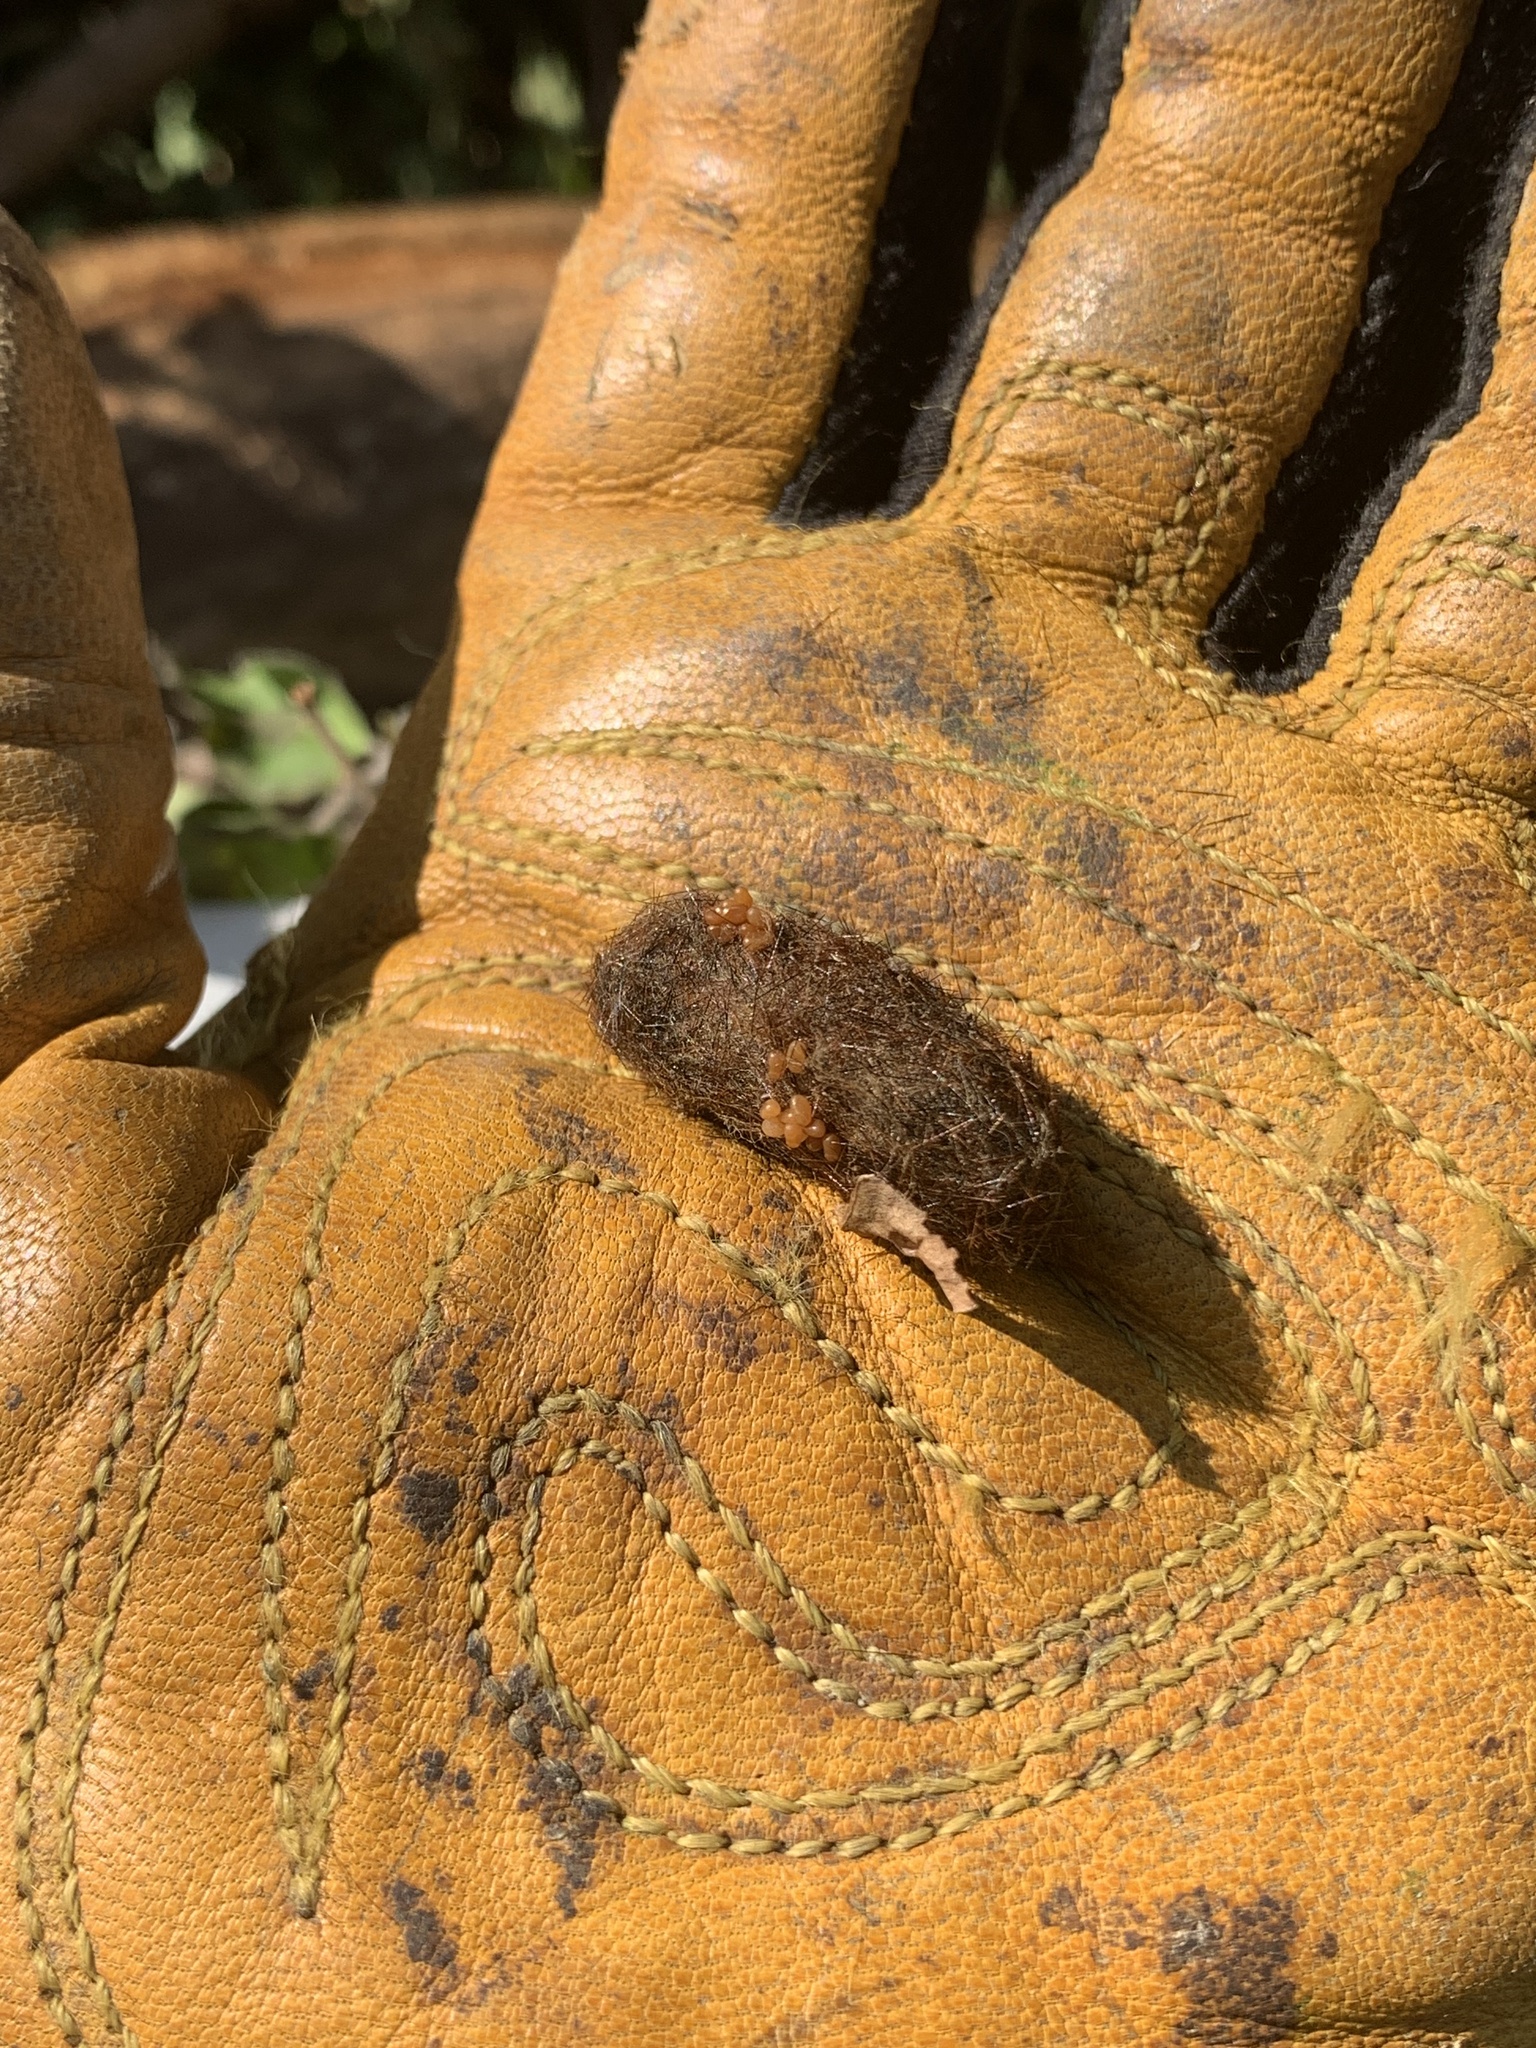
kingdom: Animalia
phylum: Arthropoda
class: Insecta
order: Lepidoptera
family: Erebidae
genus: Pyrrharctia
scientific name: Pyrrharctia isabella
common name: Isabella tiger moth
